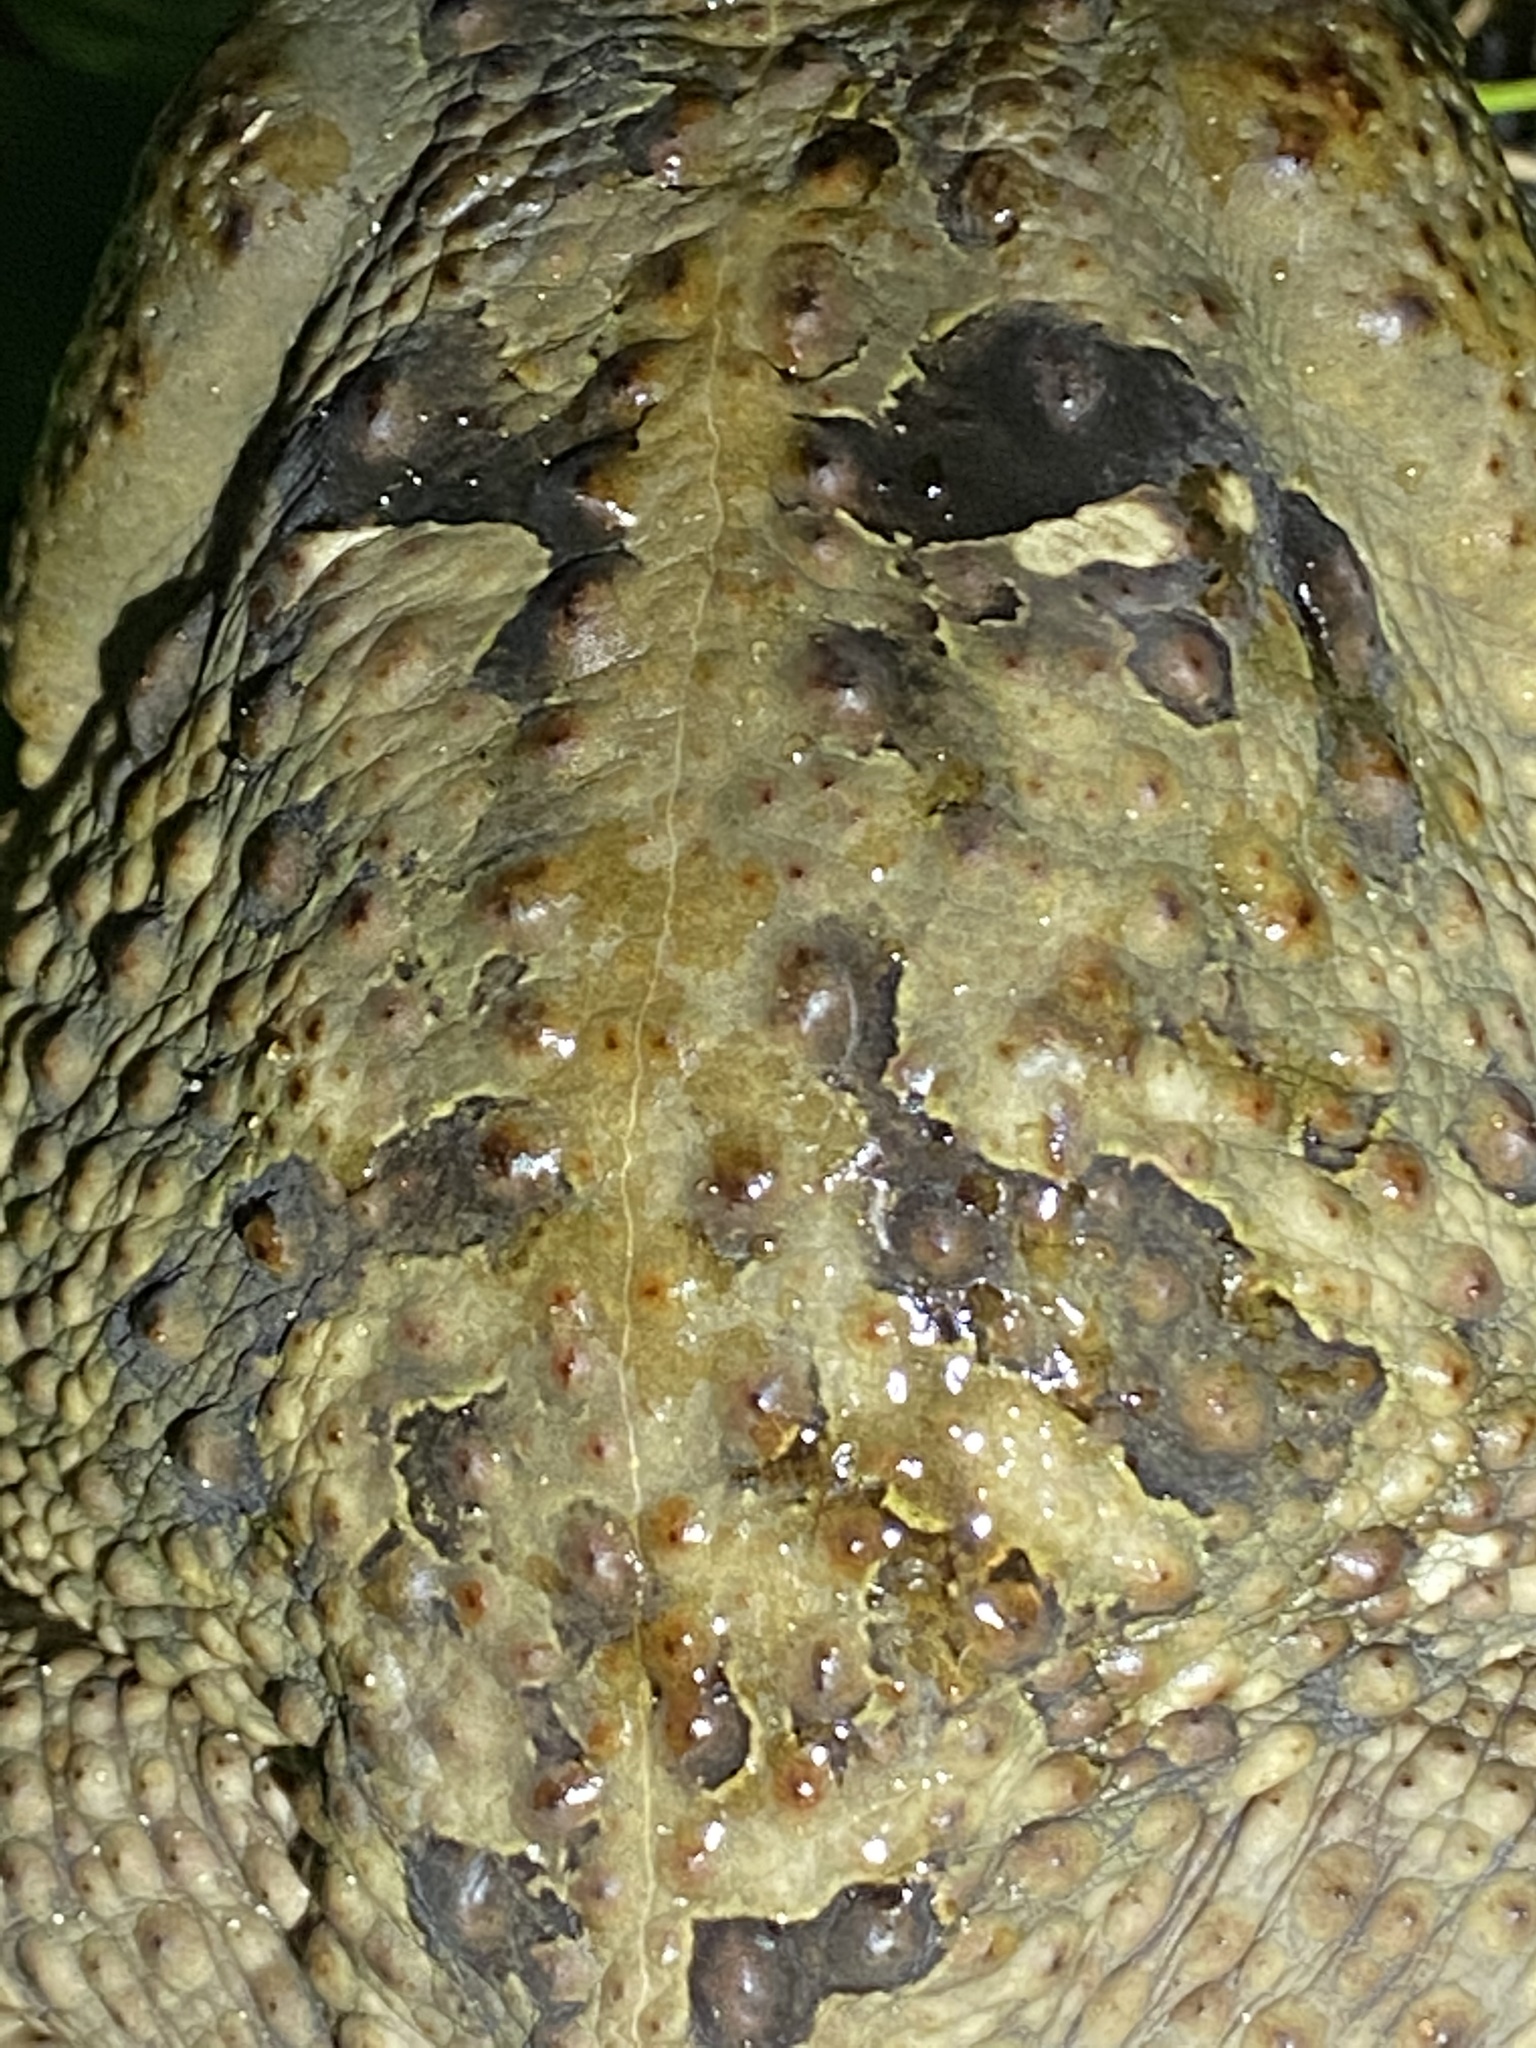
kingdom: Animalia
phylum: Chordata
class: Amphibia
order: Anura
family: Bufonidae
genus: Rhinella
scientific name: Rhinella marina
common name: Cane toad
